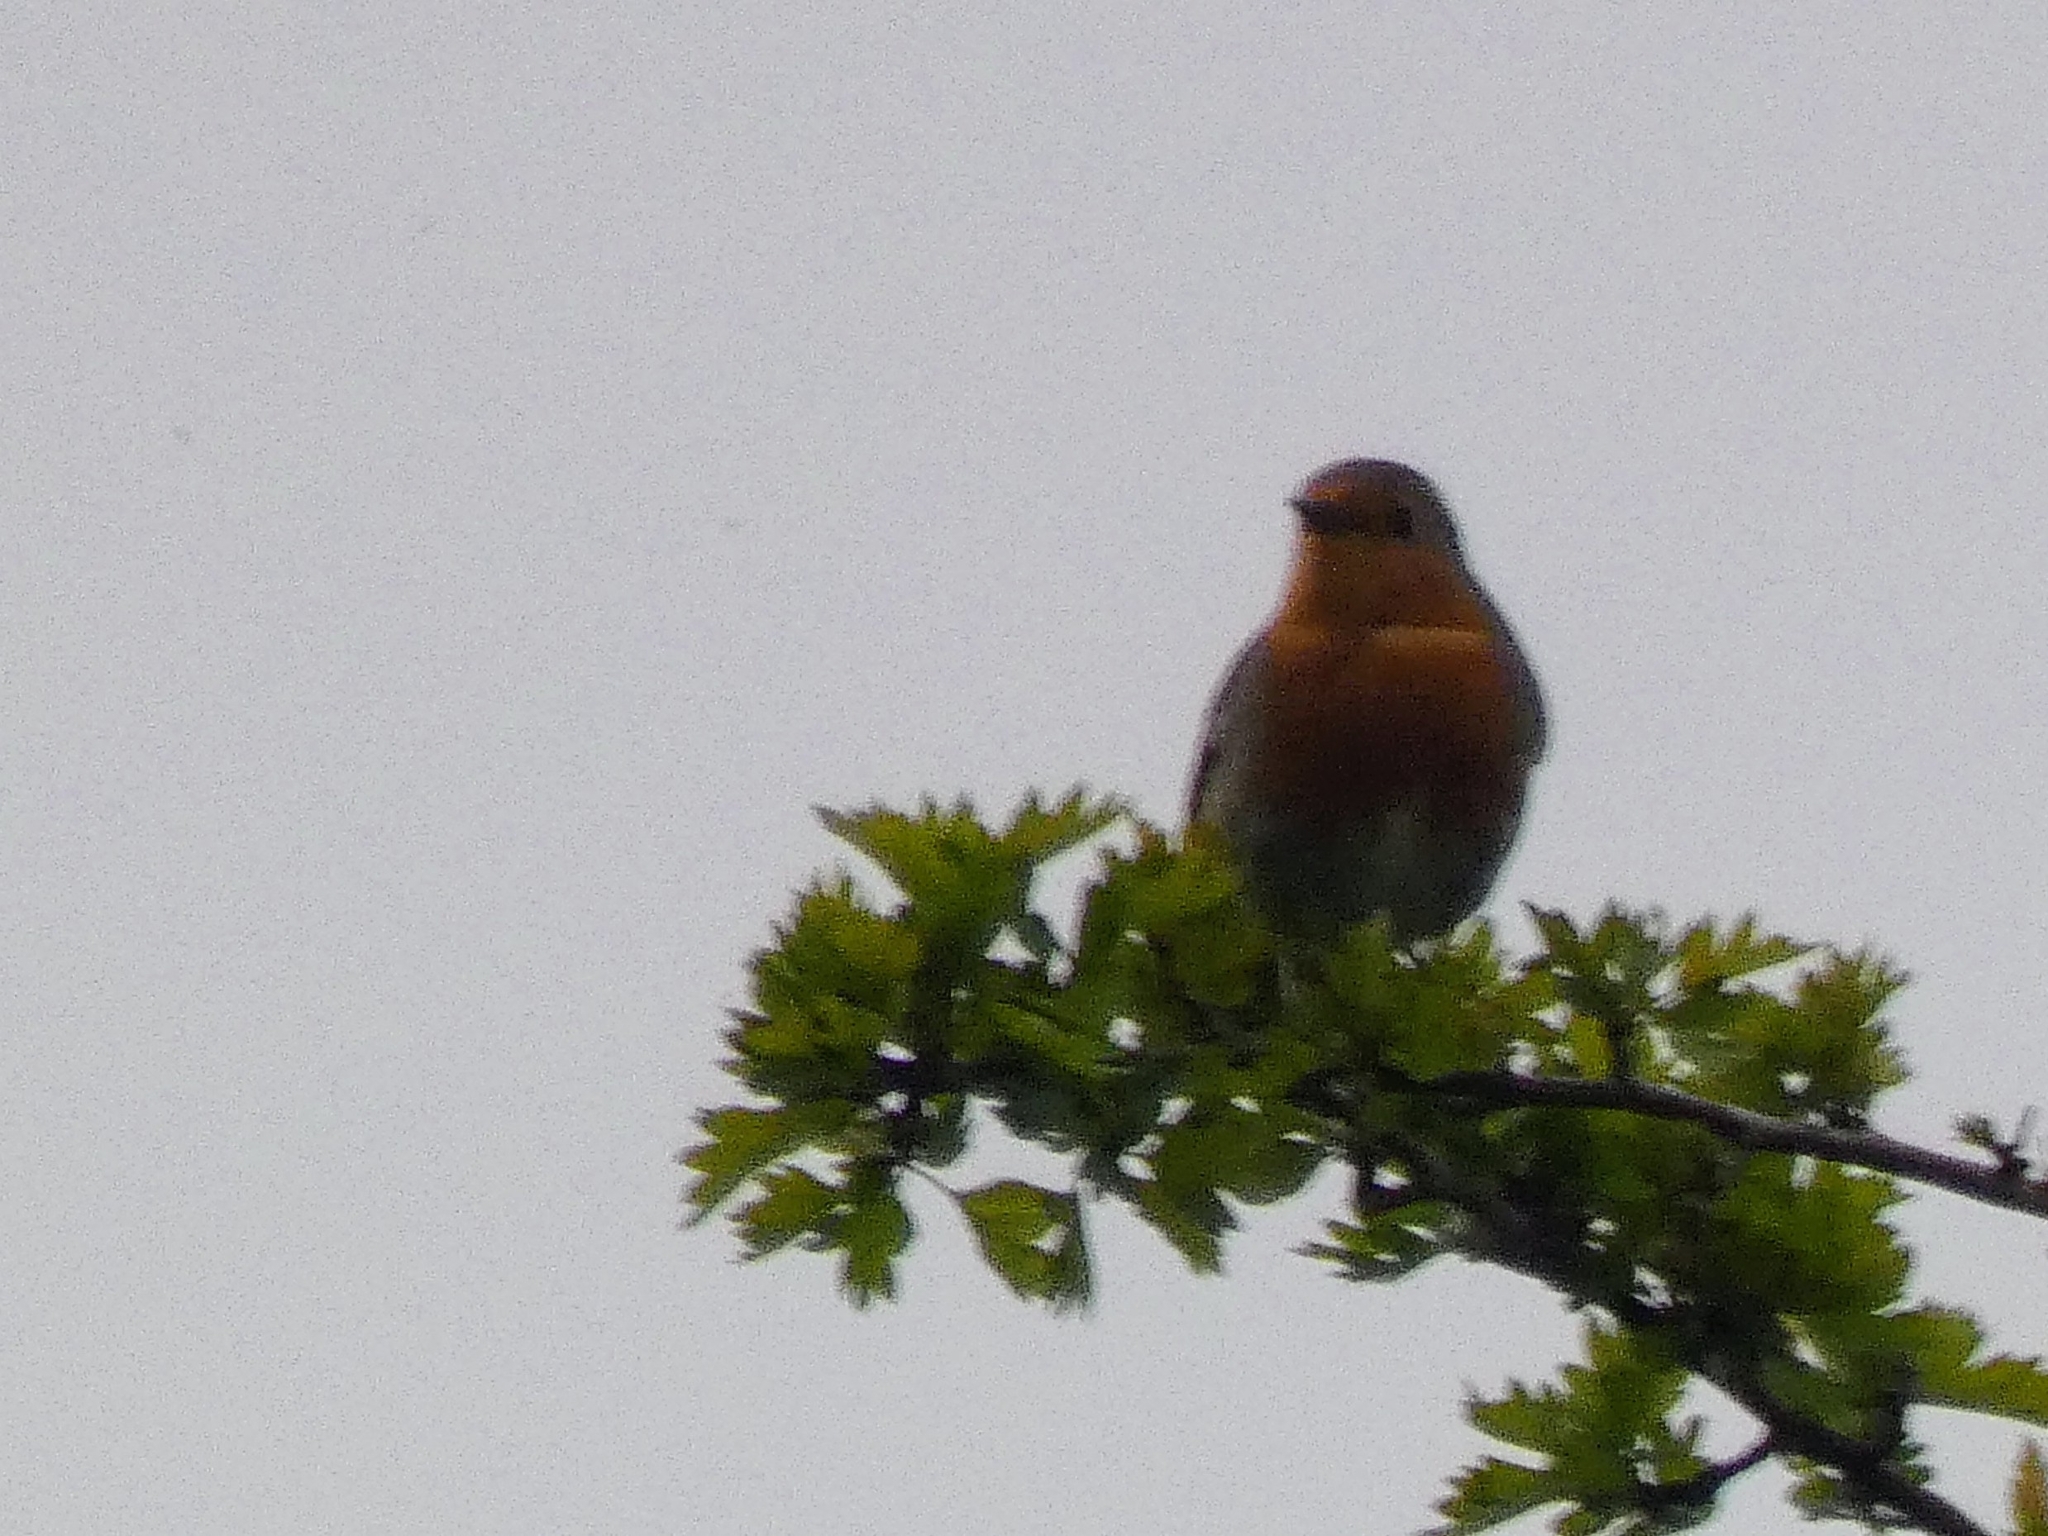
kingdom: Animalia
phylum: Chordata
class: Aves
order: Passeriformes
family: Muscicapidae
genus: Erithacus
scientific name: Erithacus rubecula
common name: European robin
